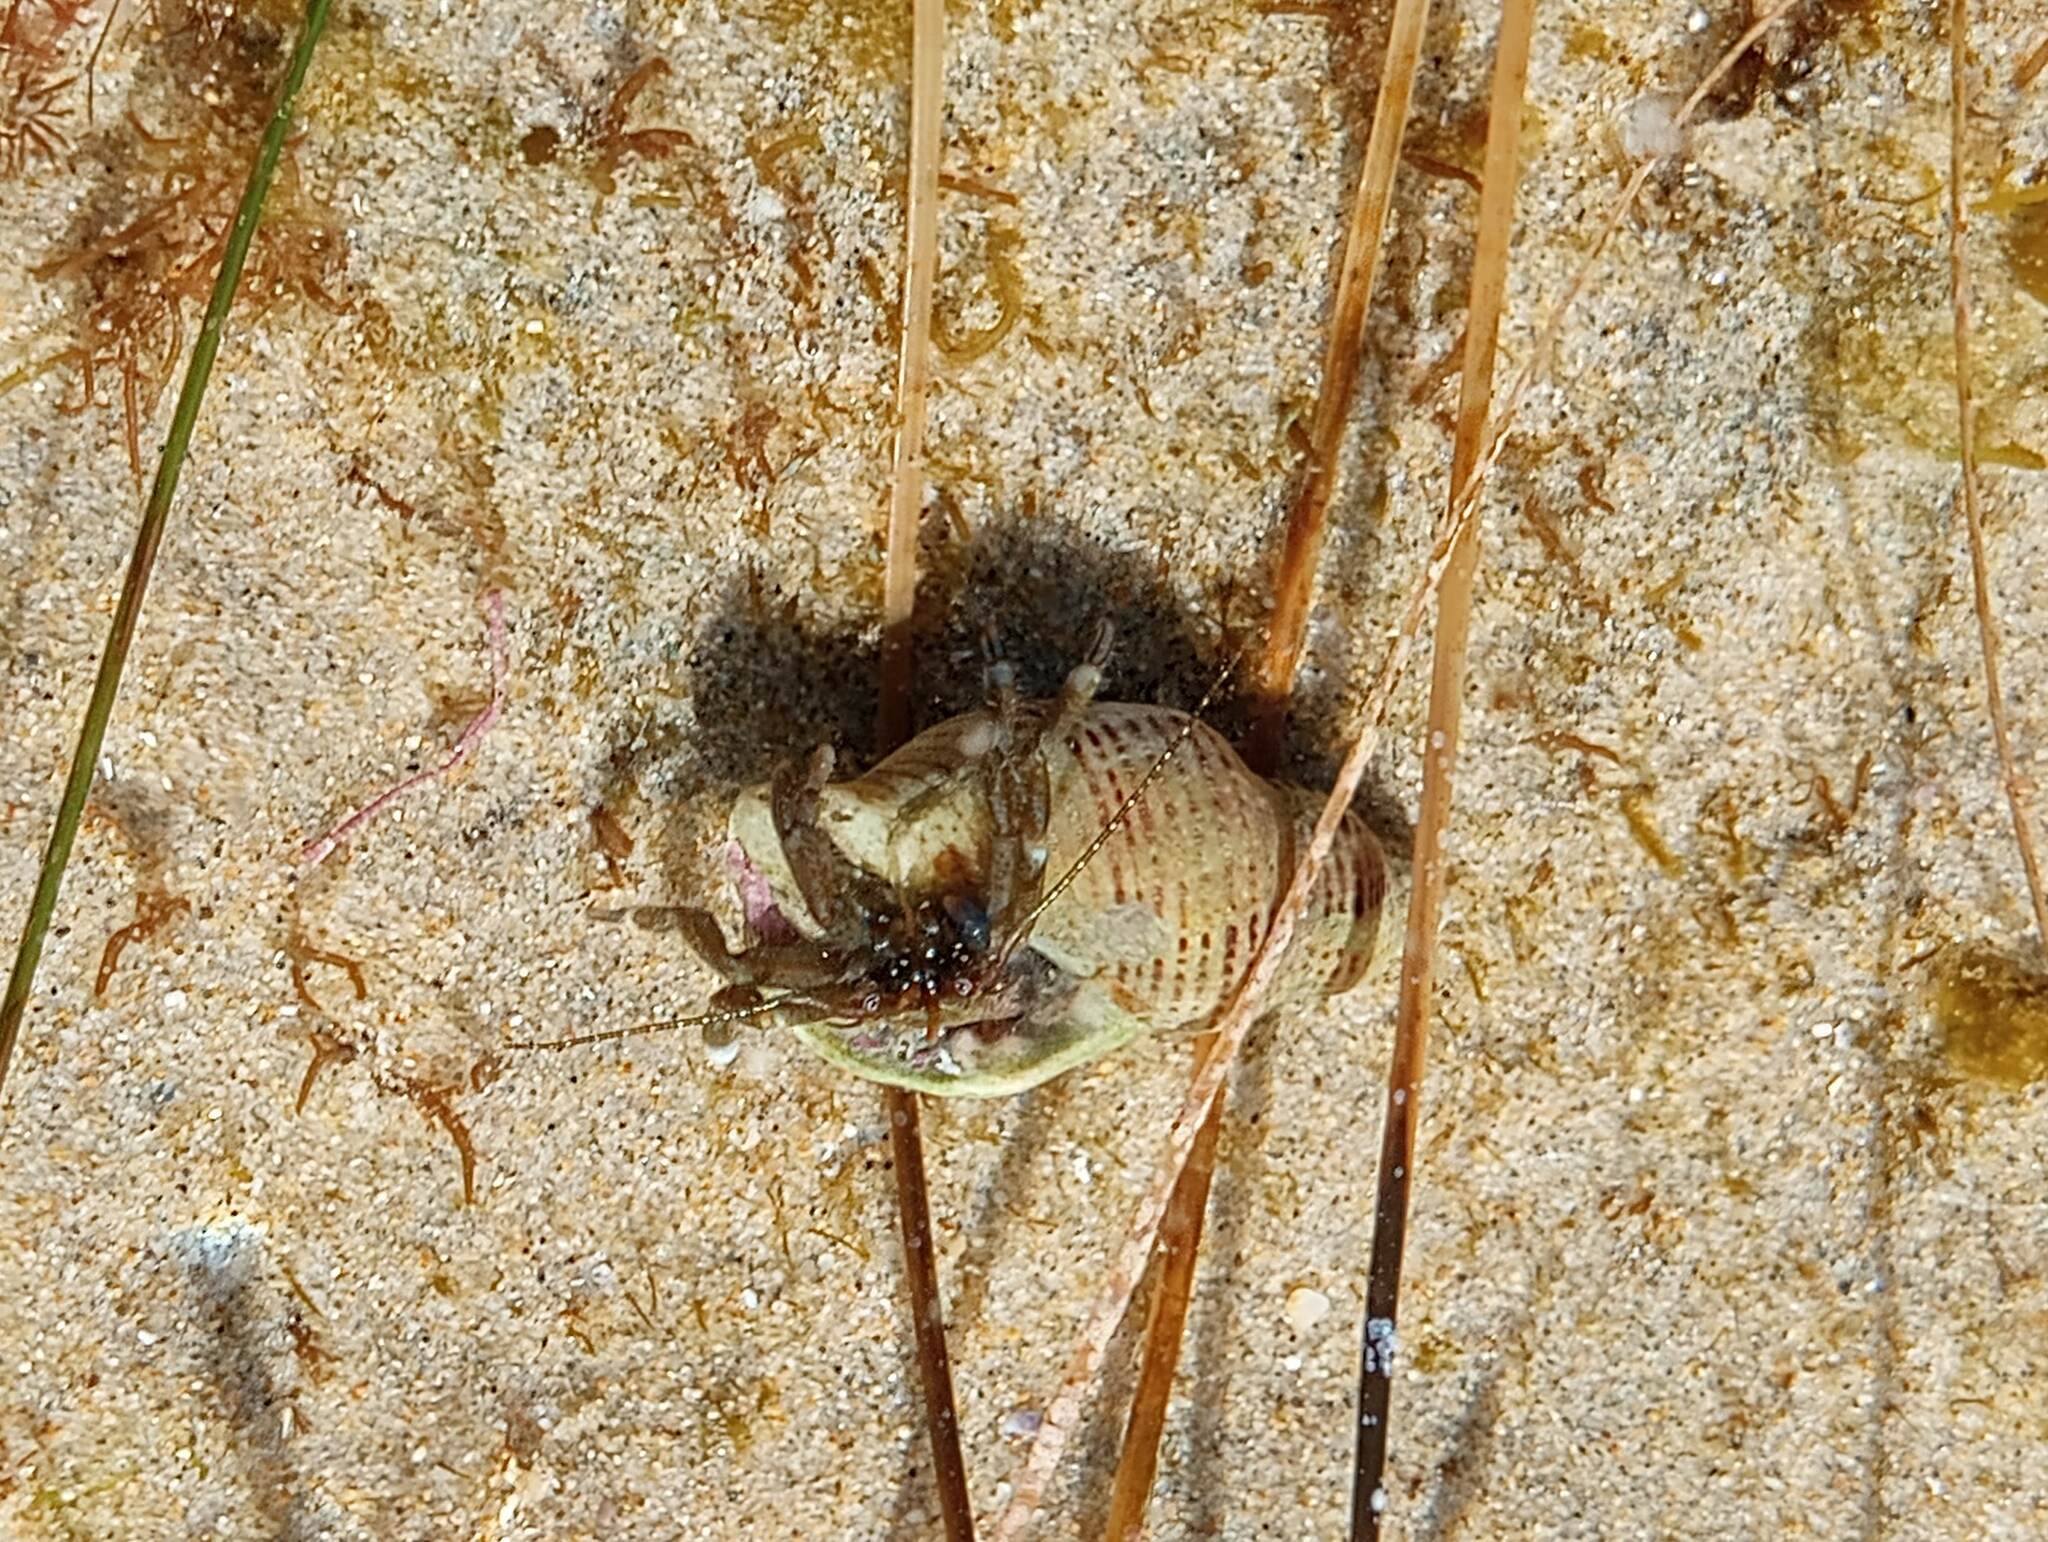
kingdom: Animalia
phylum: Arthropoda
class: Malacostraca
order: Decapoda
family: Paguridae
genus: Pagurus
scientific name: Pagurus venturensis
